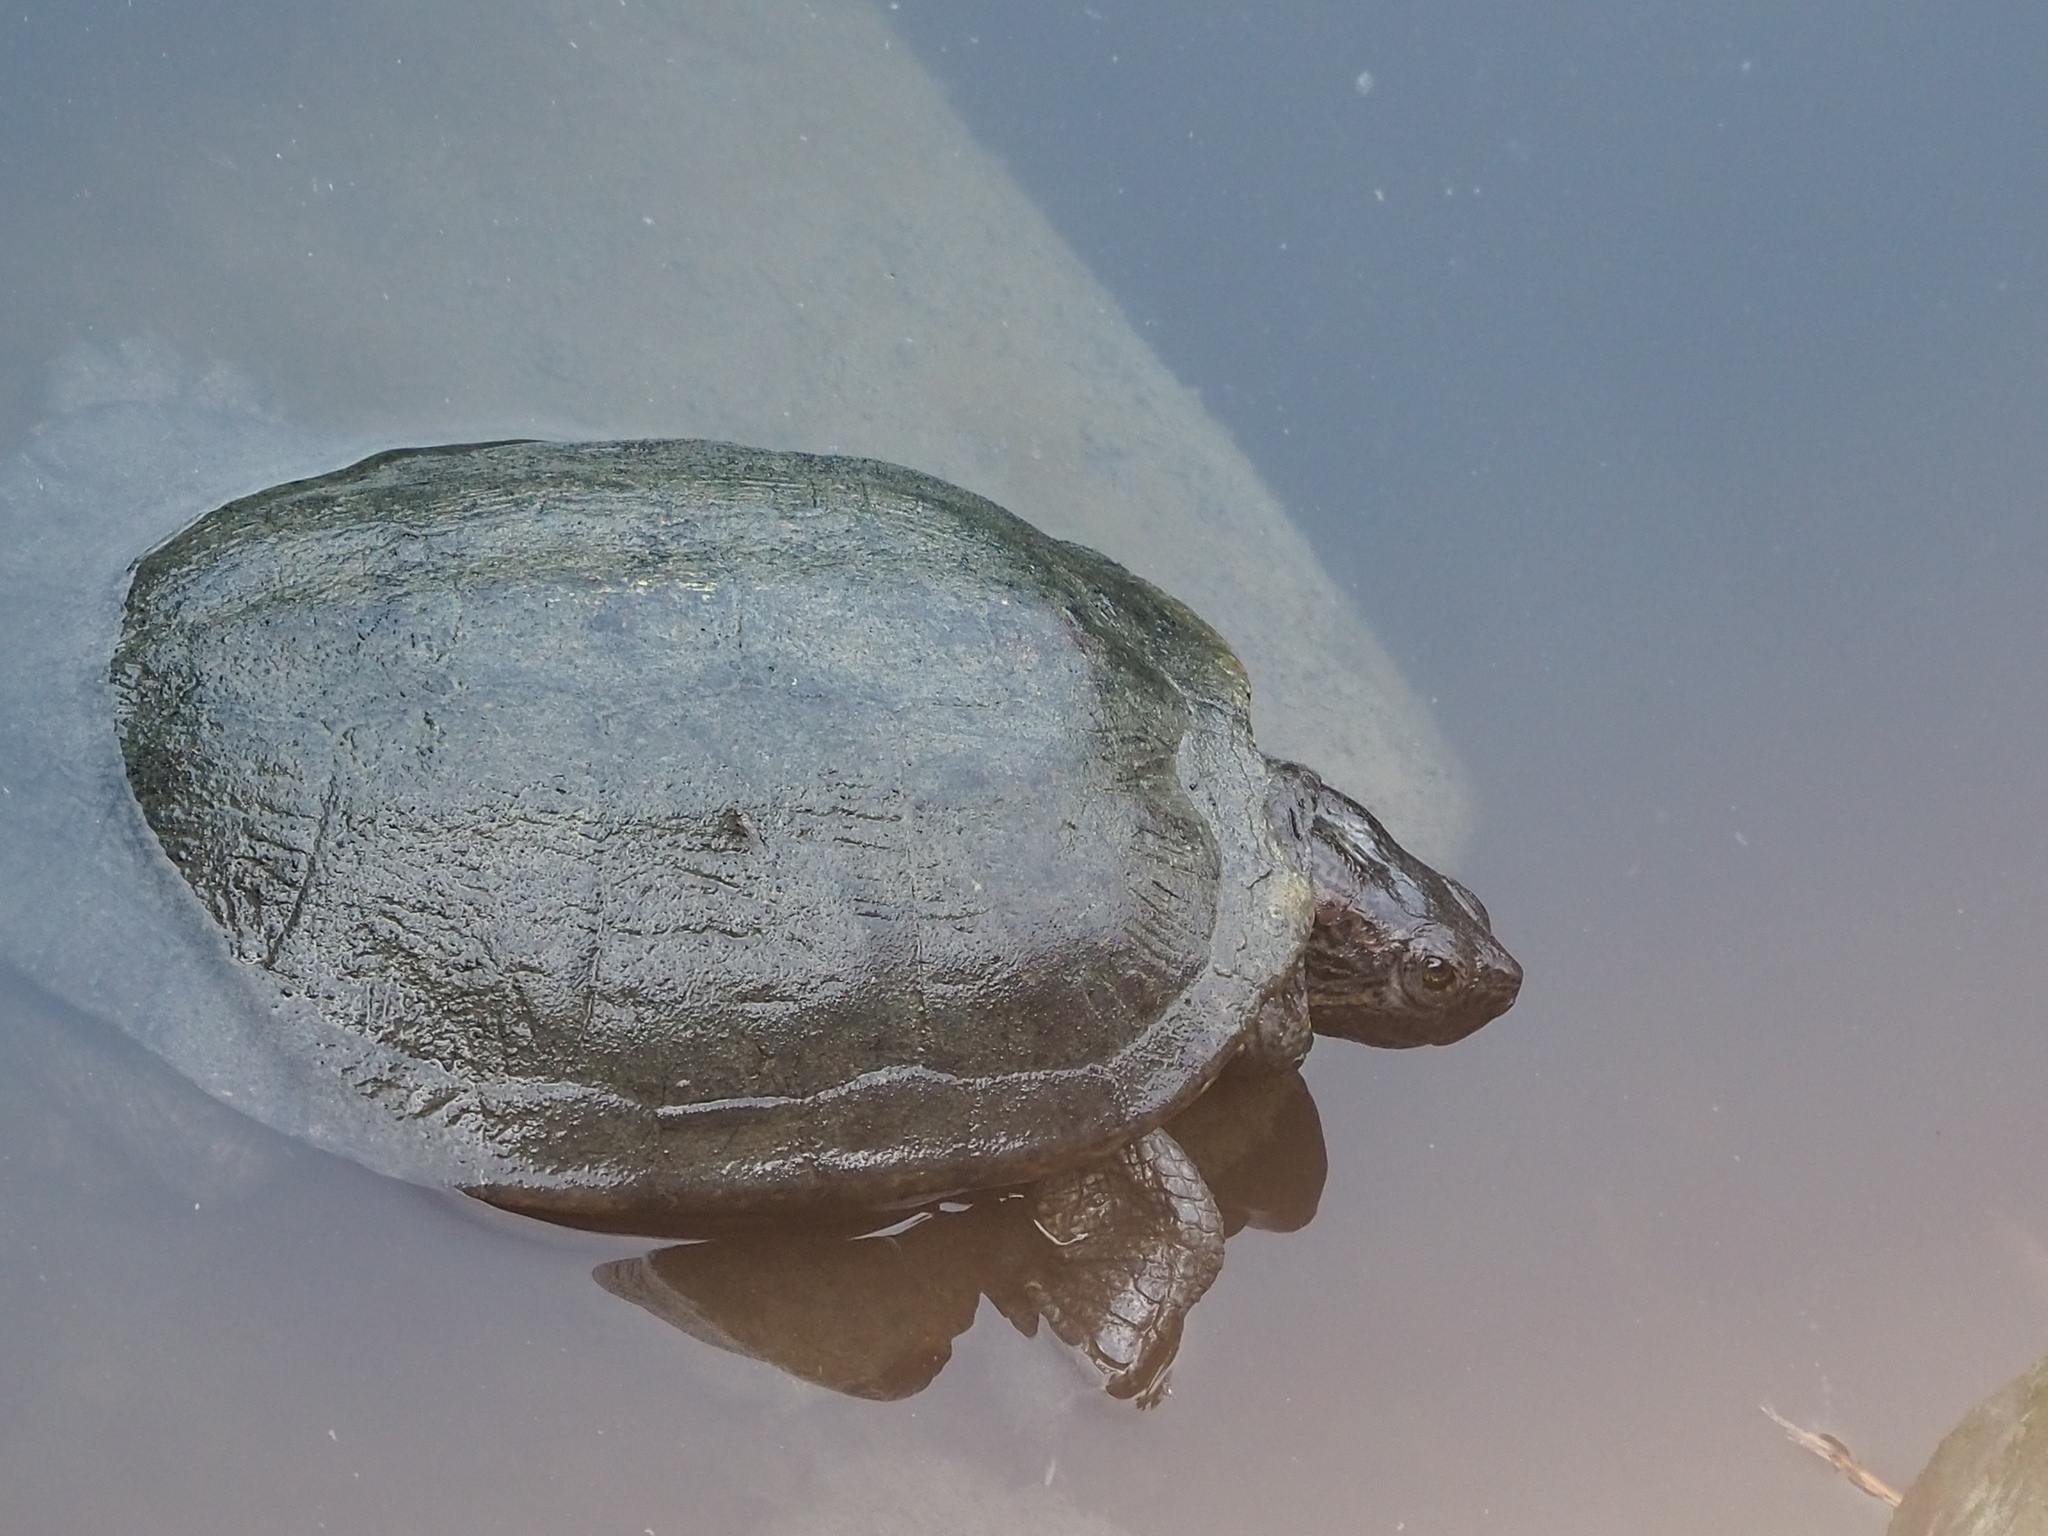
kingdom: Animalia
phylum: Chordata
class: Testudines
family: Emydidae
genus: Trachemys
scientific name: Trachemys scripta
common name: Slider
